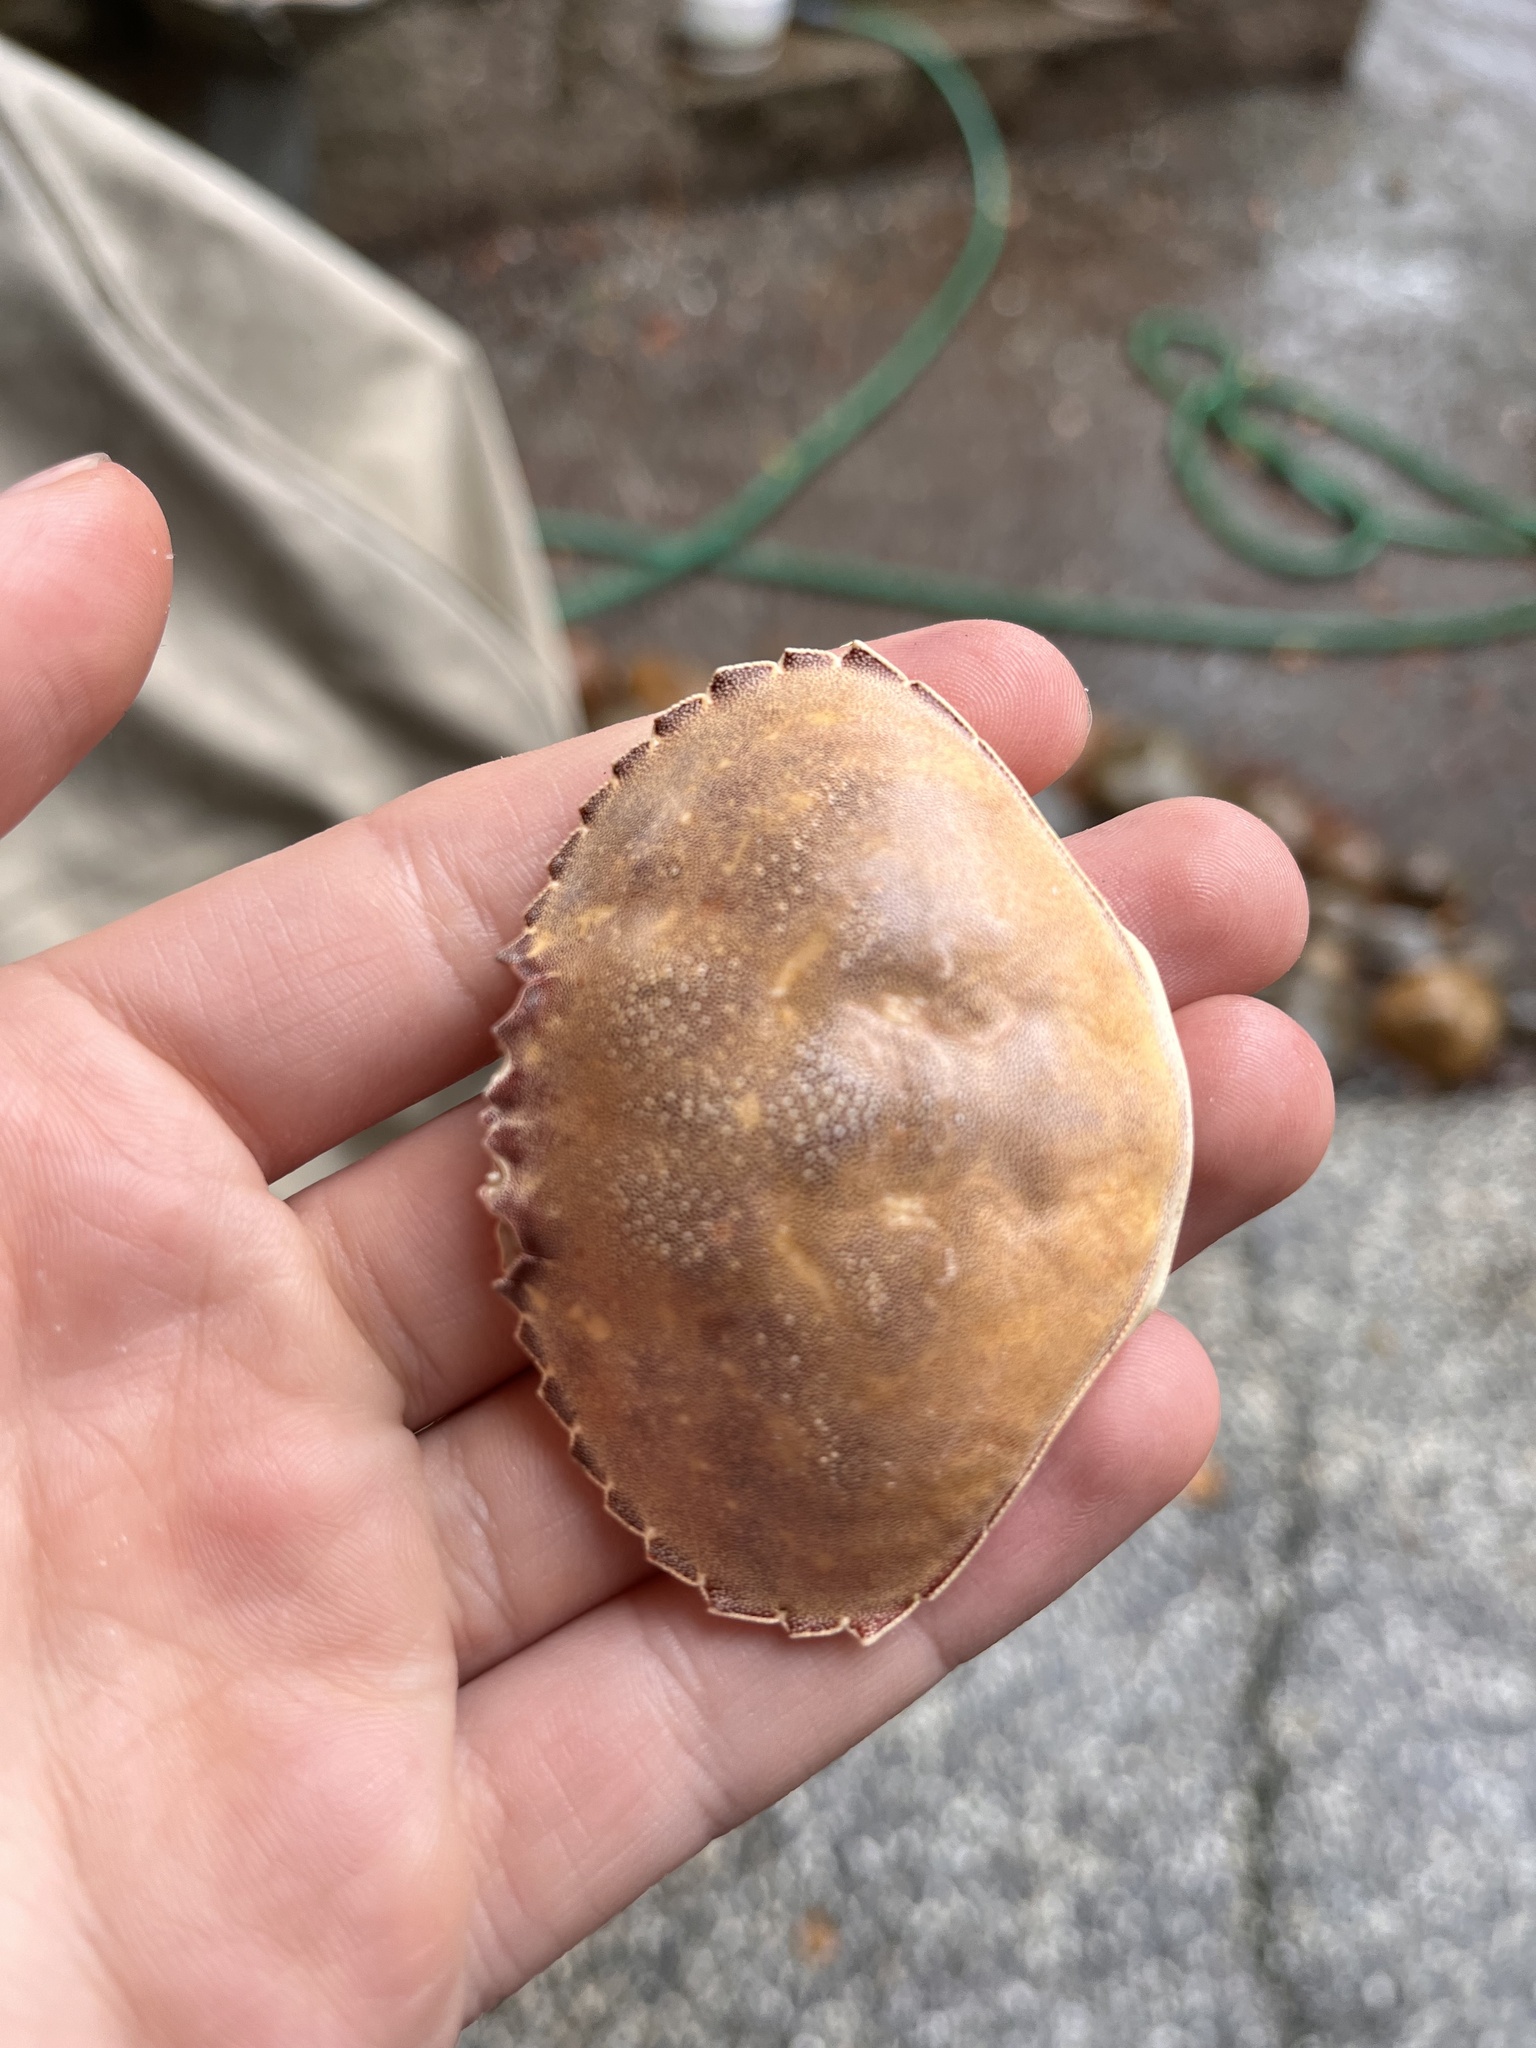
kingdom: Animalia
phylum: Arthropoda
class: Malacostraca
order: Decapoda
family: Cancridae
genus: Metacarcinus
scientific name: Metacarcinus gracilis
